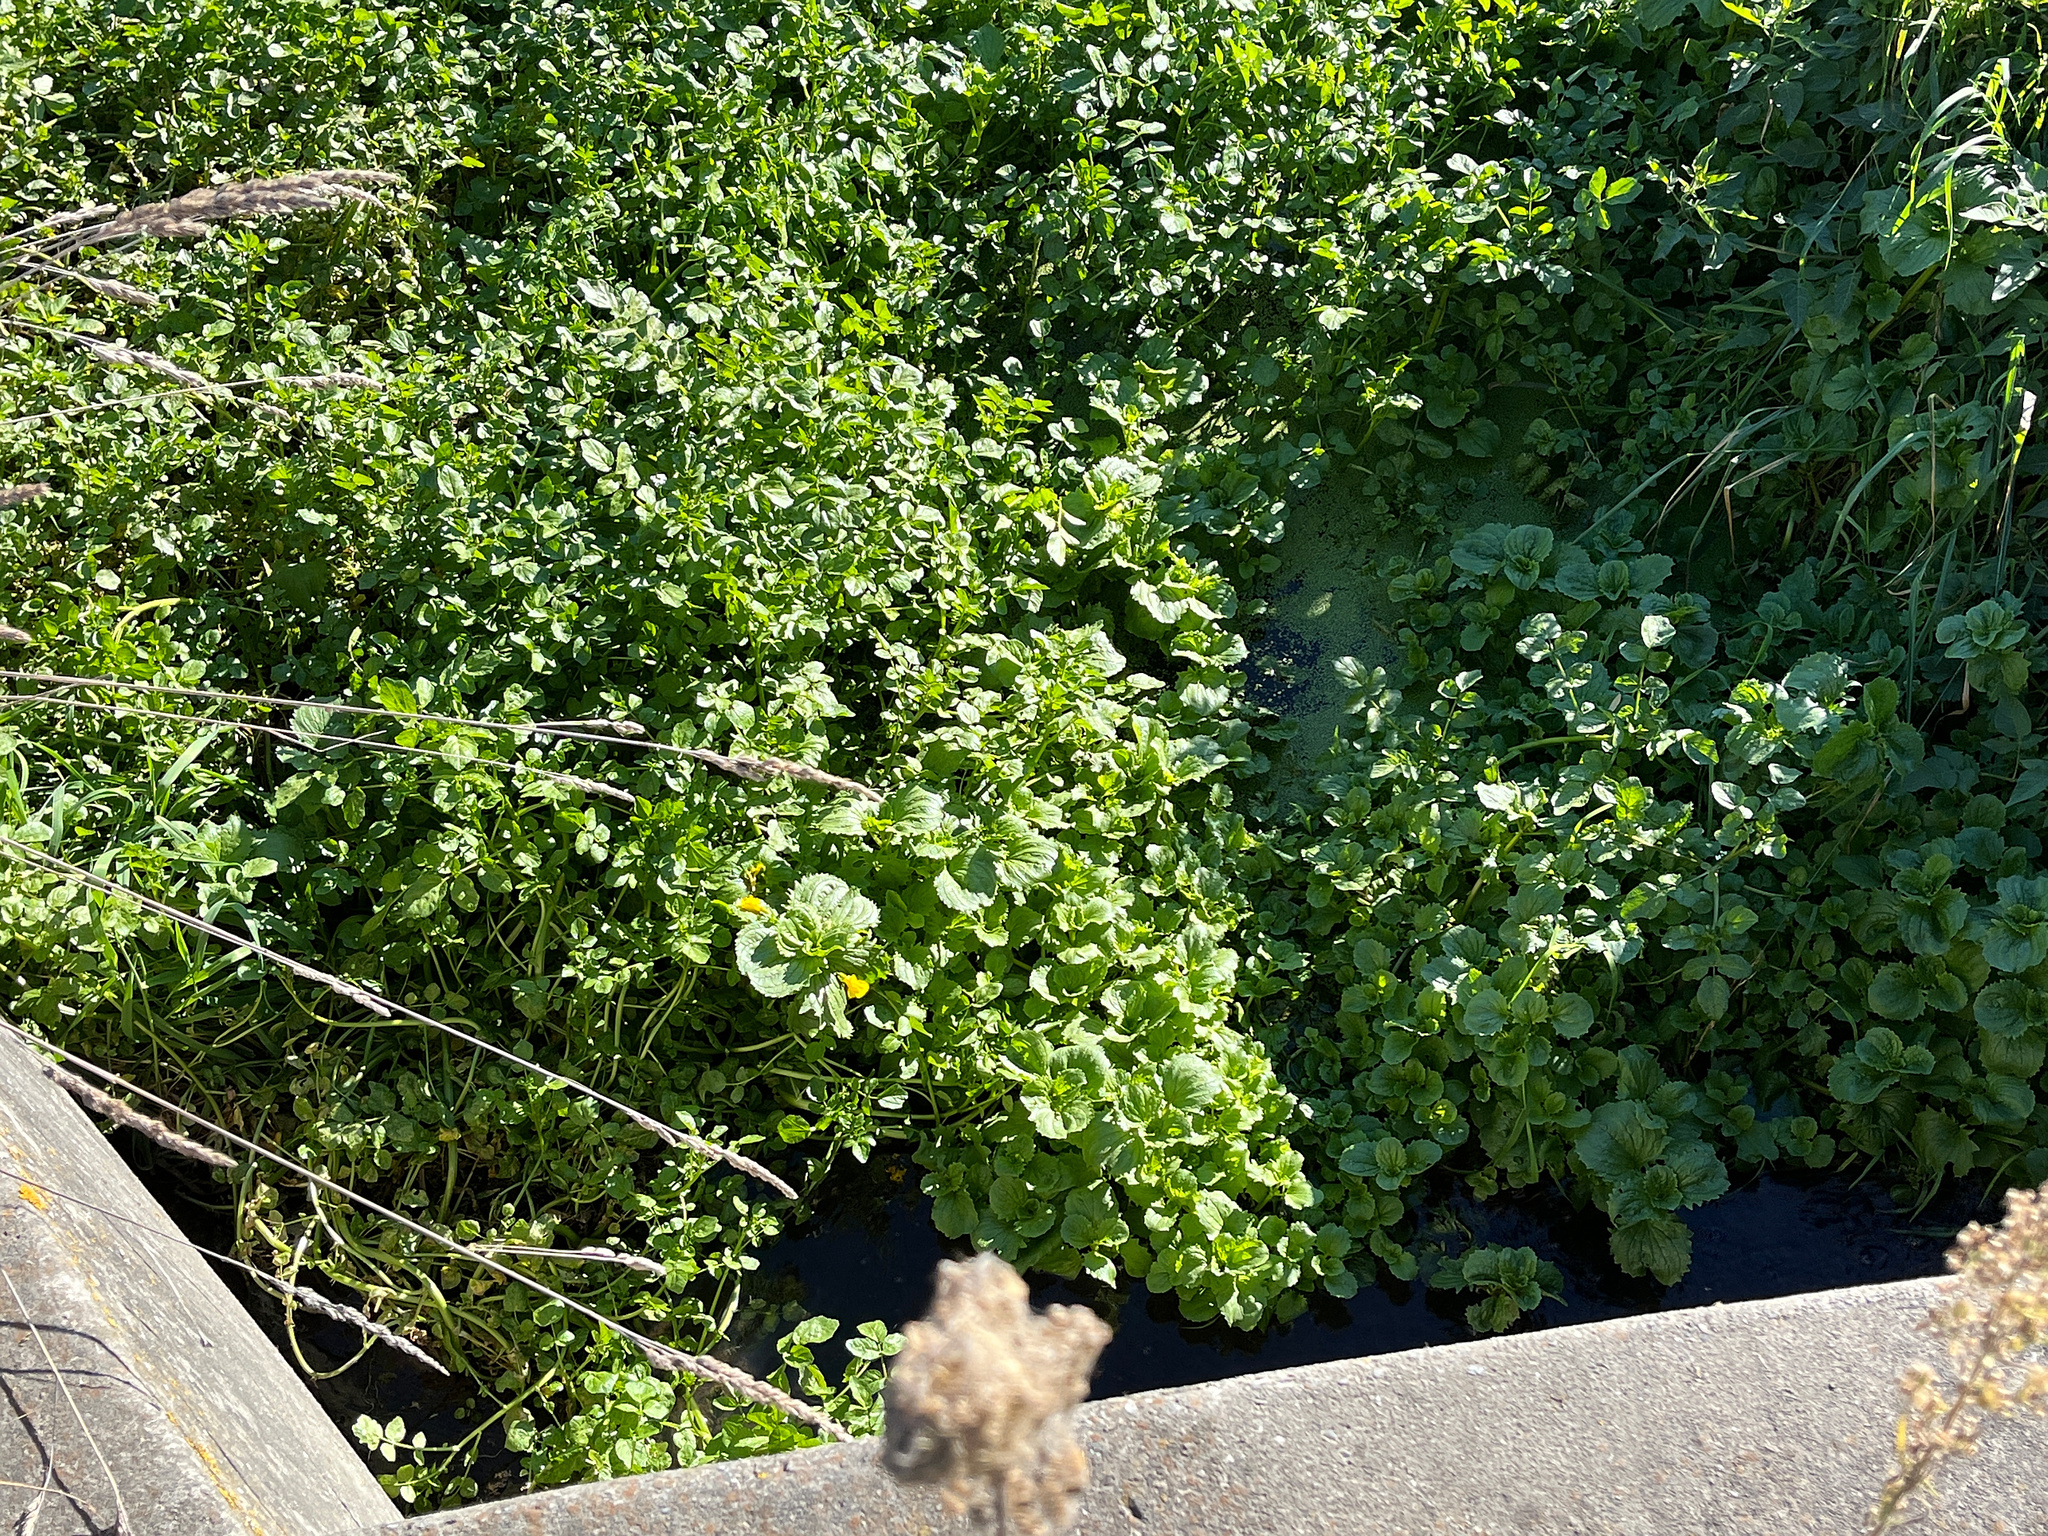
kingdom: Plantae
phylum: Tracheophyta
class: Magnoliopsida
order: Lamiales
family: Phrymaceae
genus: Erythranthe
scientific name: Erythranthe guttata
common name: Monkeyflower
